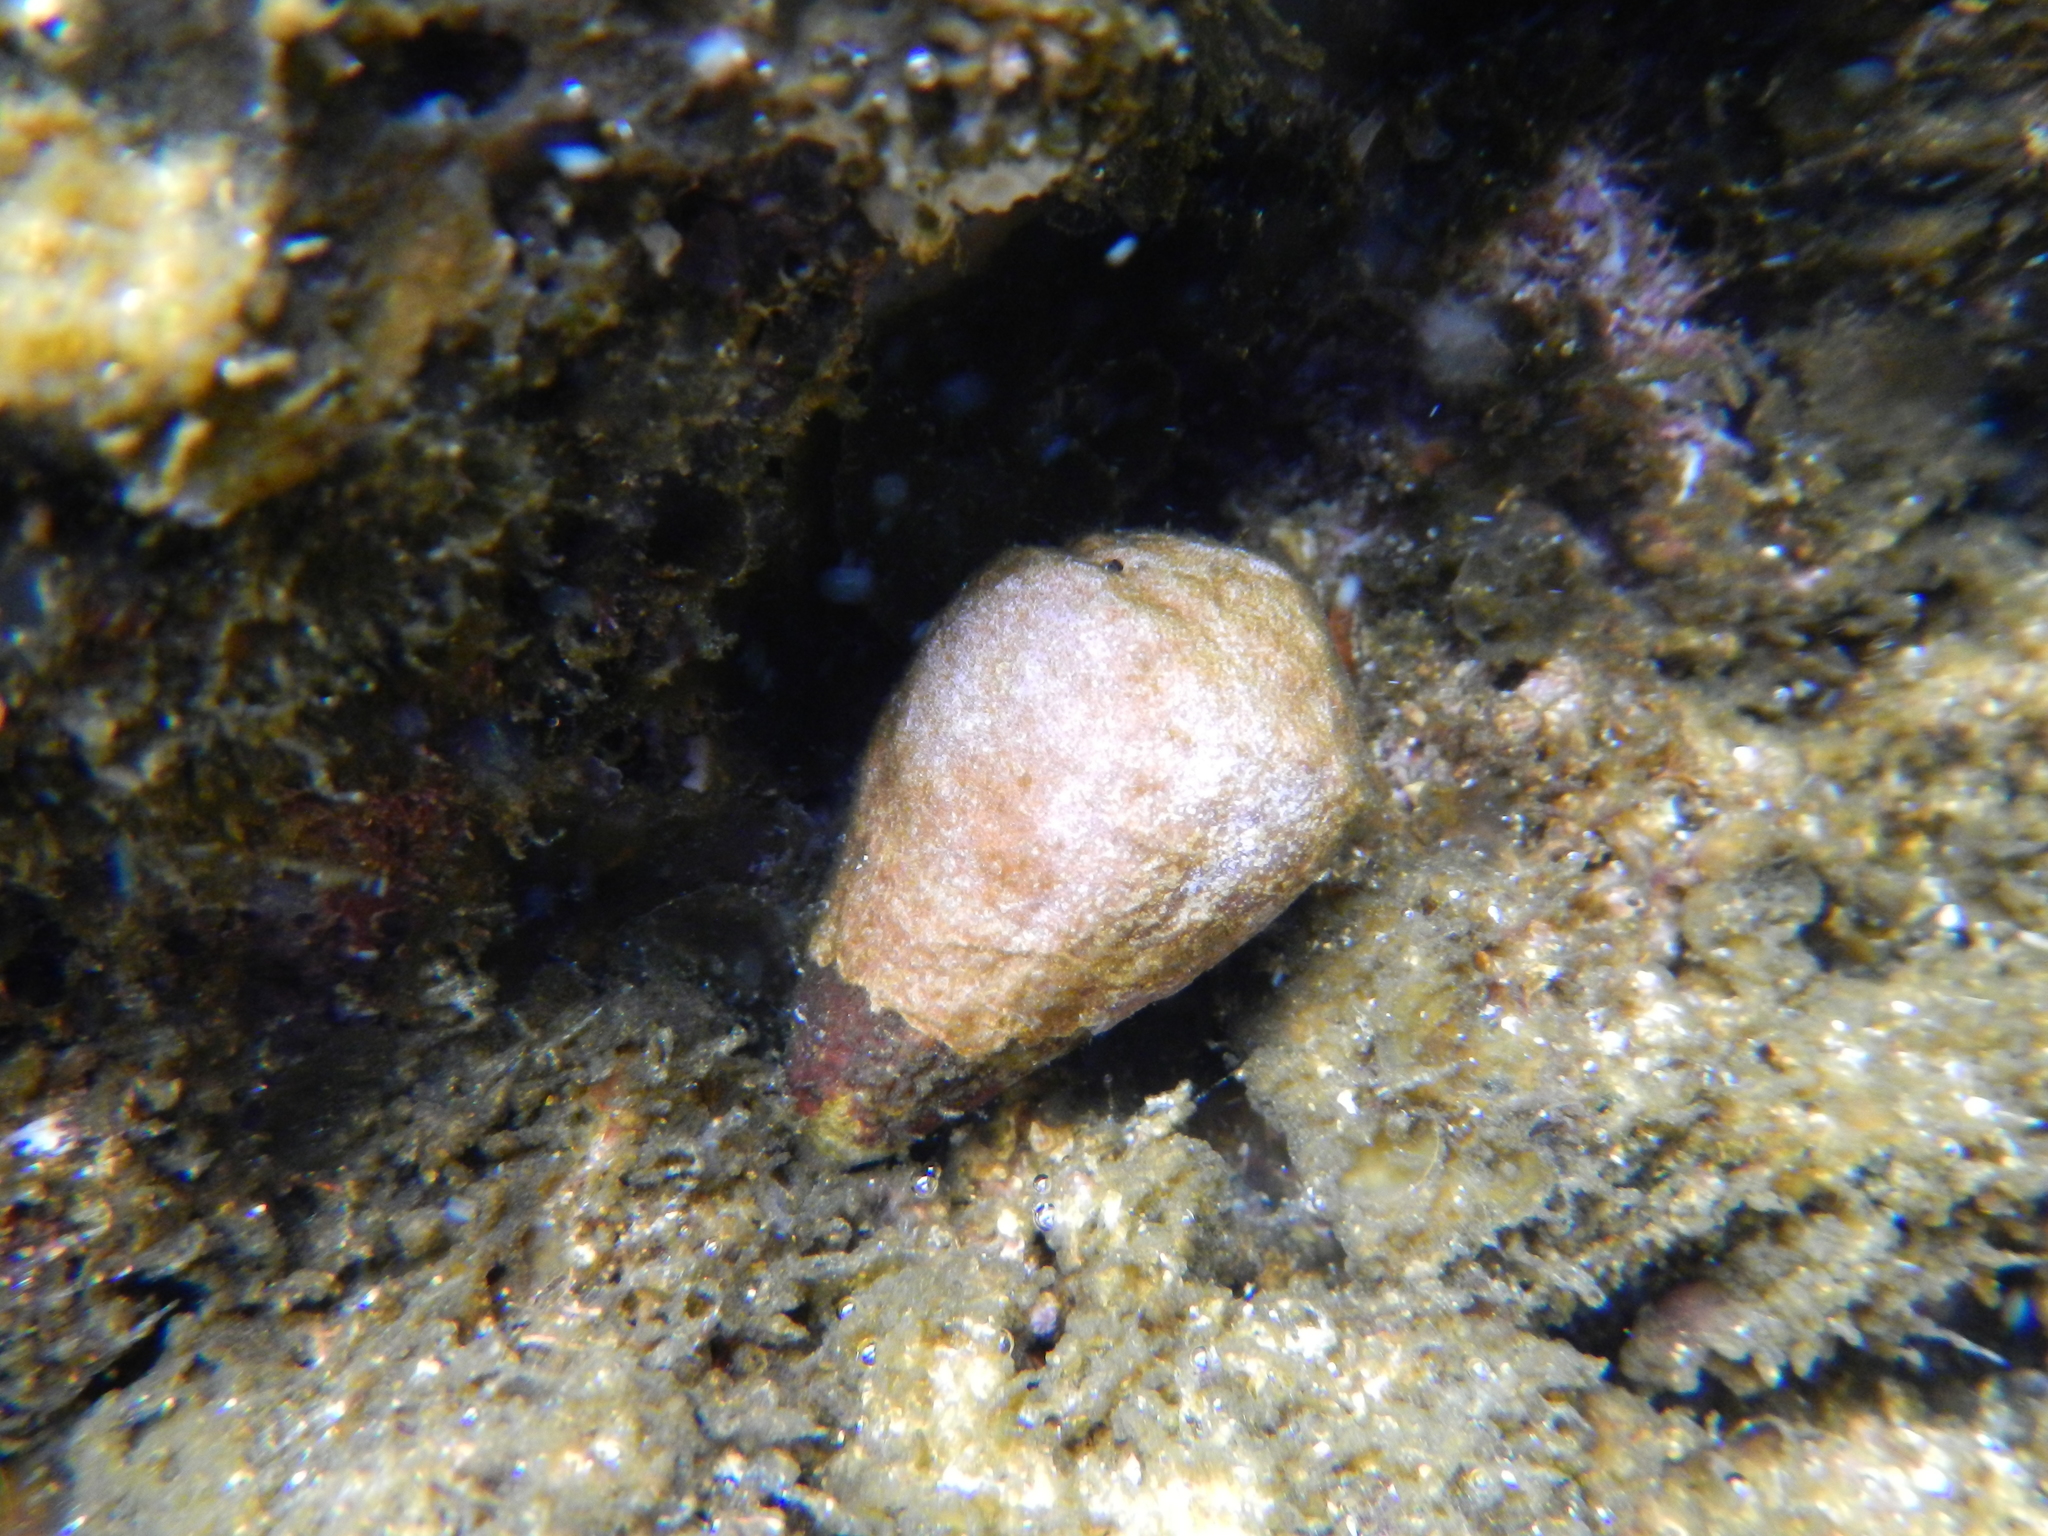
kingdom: Animalia
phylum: Mollusca
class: Gastropoda
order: Neogastropoda
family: Conidae
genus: Conus
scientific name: Conus miliaris
